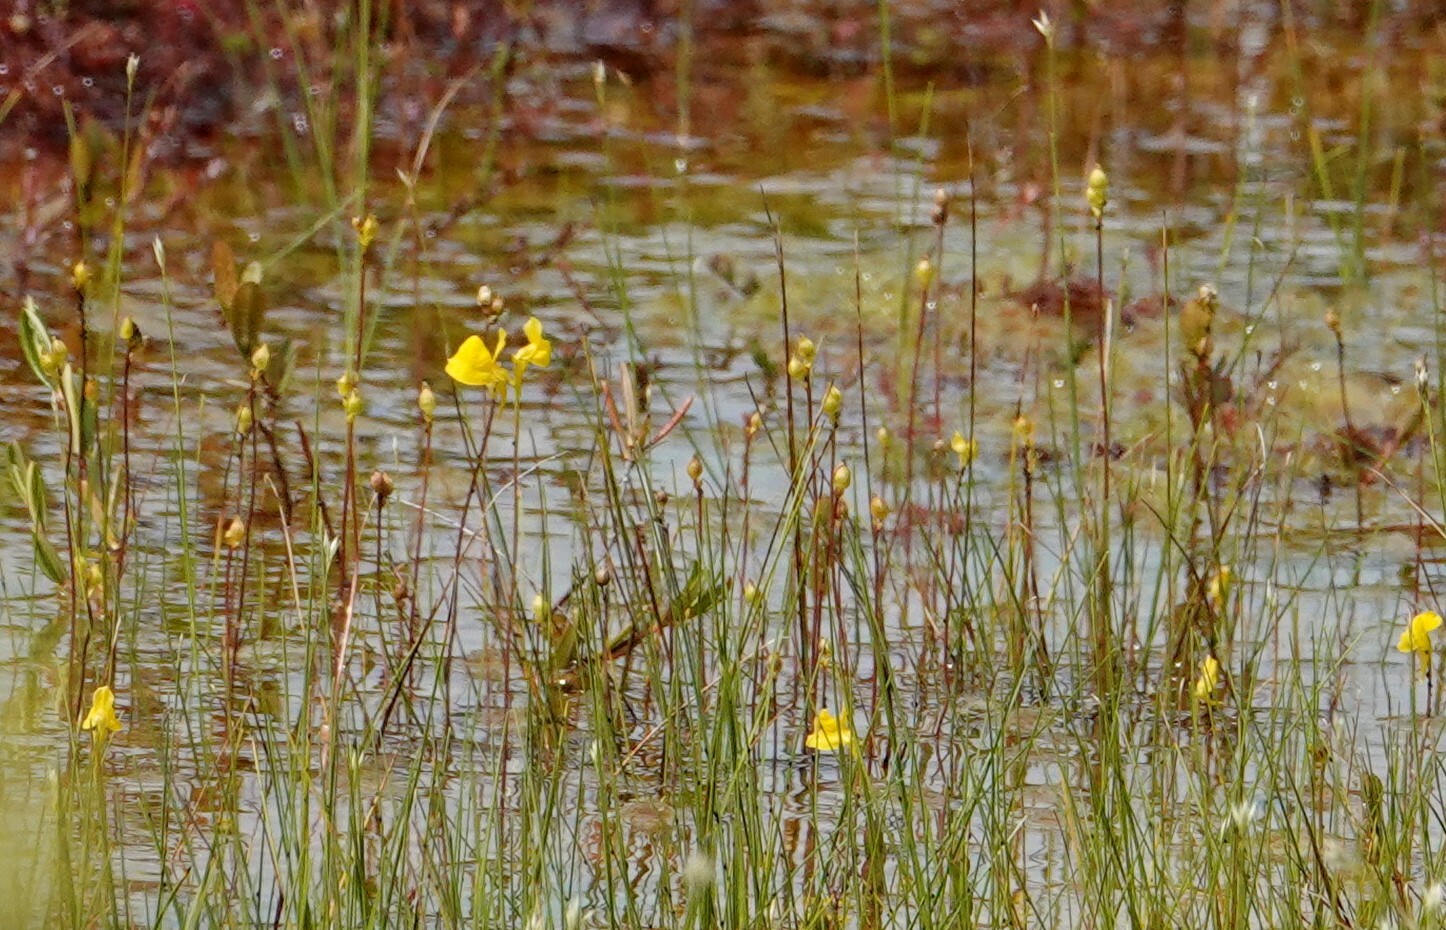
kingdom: Plantae
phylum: Tracheophyta
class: Magnoliopsida
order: Lamiales
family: Lentibulariaceae
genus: Utricularia
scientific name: Utricularia cornuta
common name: Horned bladderwort
